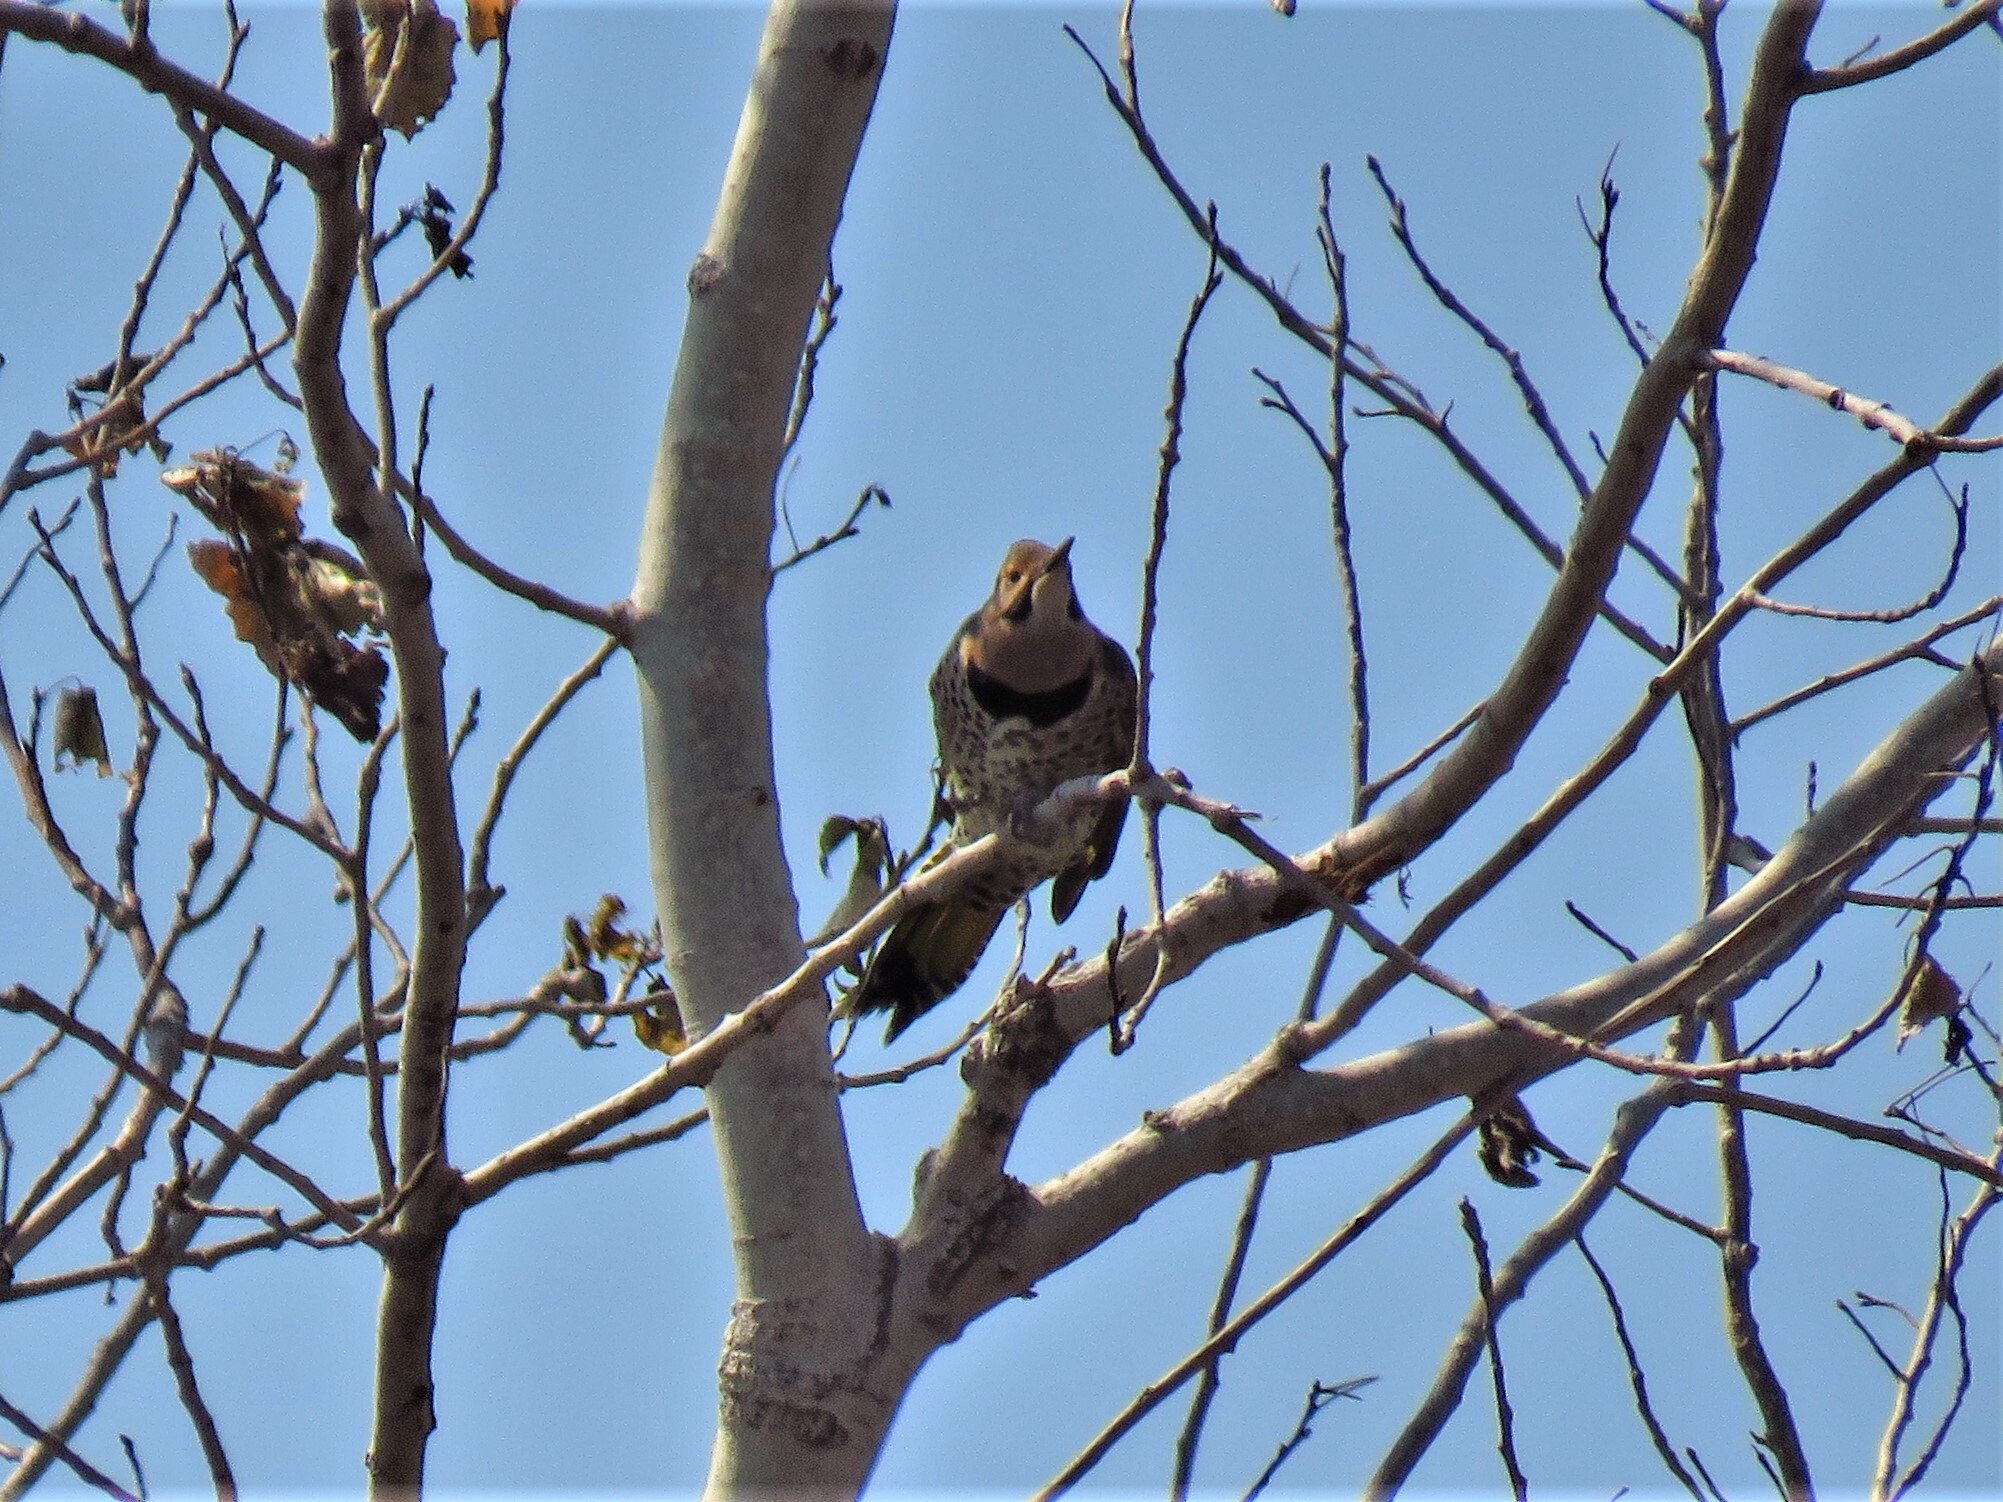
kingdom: Animalia
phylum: Chordata
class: Aves
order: Piciformes
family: Picidae
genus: Colaptes
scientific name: Colaptes auratus
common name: Northern flicker
